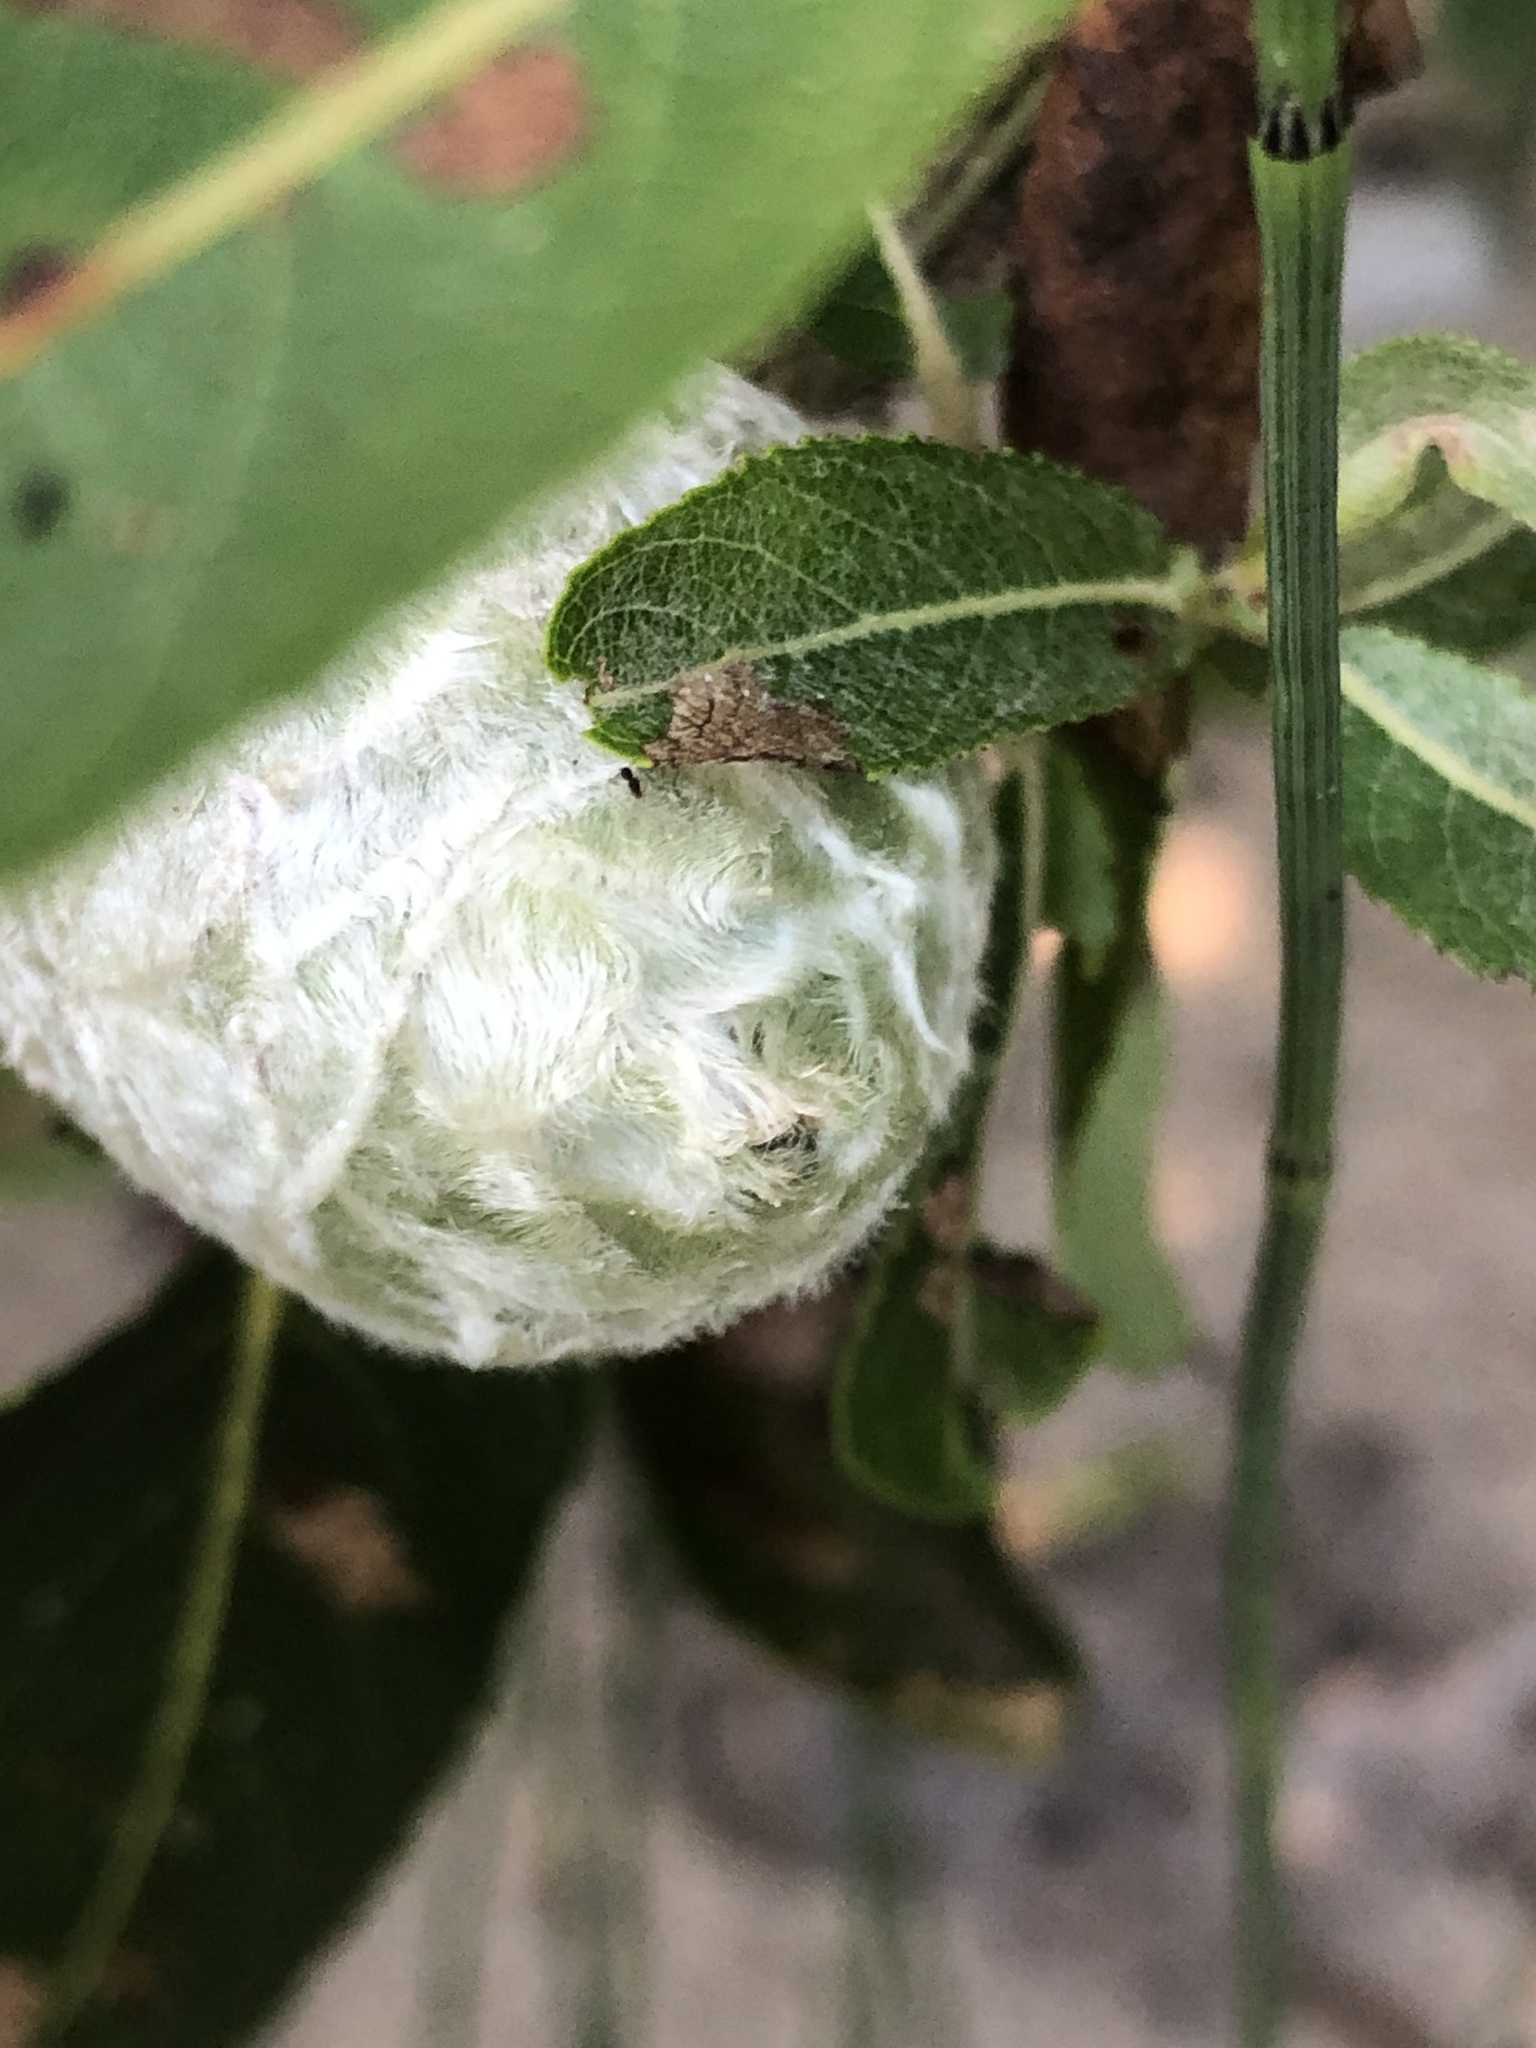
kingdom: Animalia
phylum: Arthropoda
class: Insecta
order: Diptera
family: Cecidomyiidae
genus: Rabdophaga
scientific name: Rabdophaga strobiloides
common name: Willow pinecone gall midge
